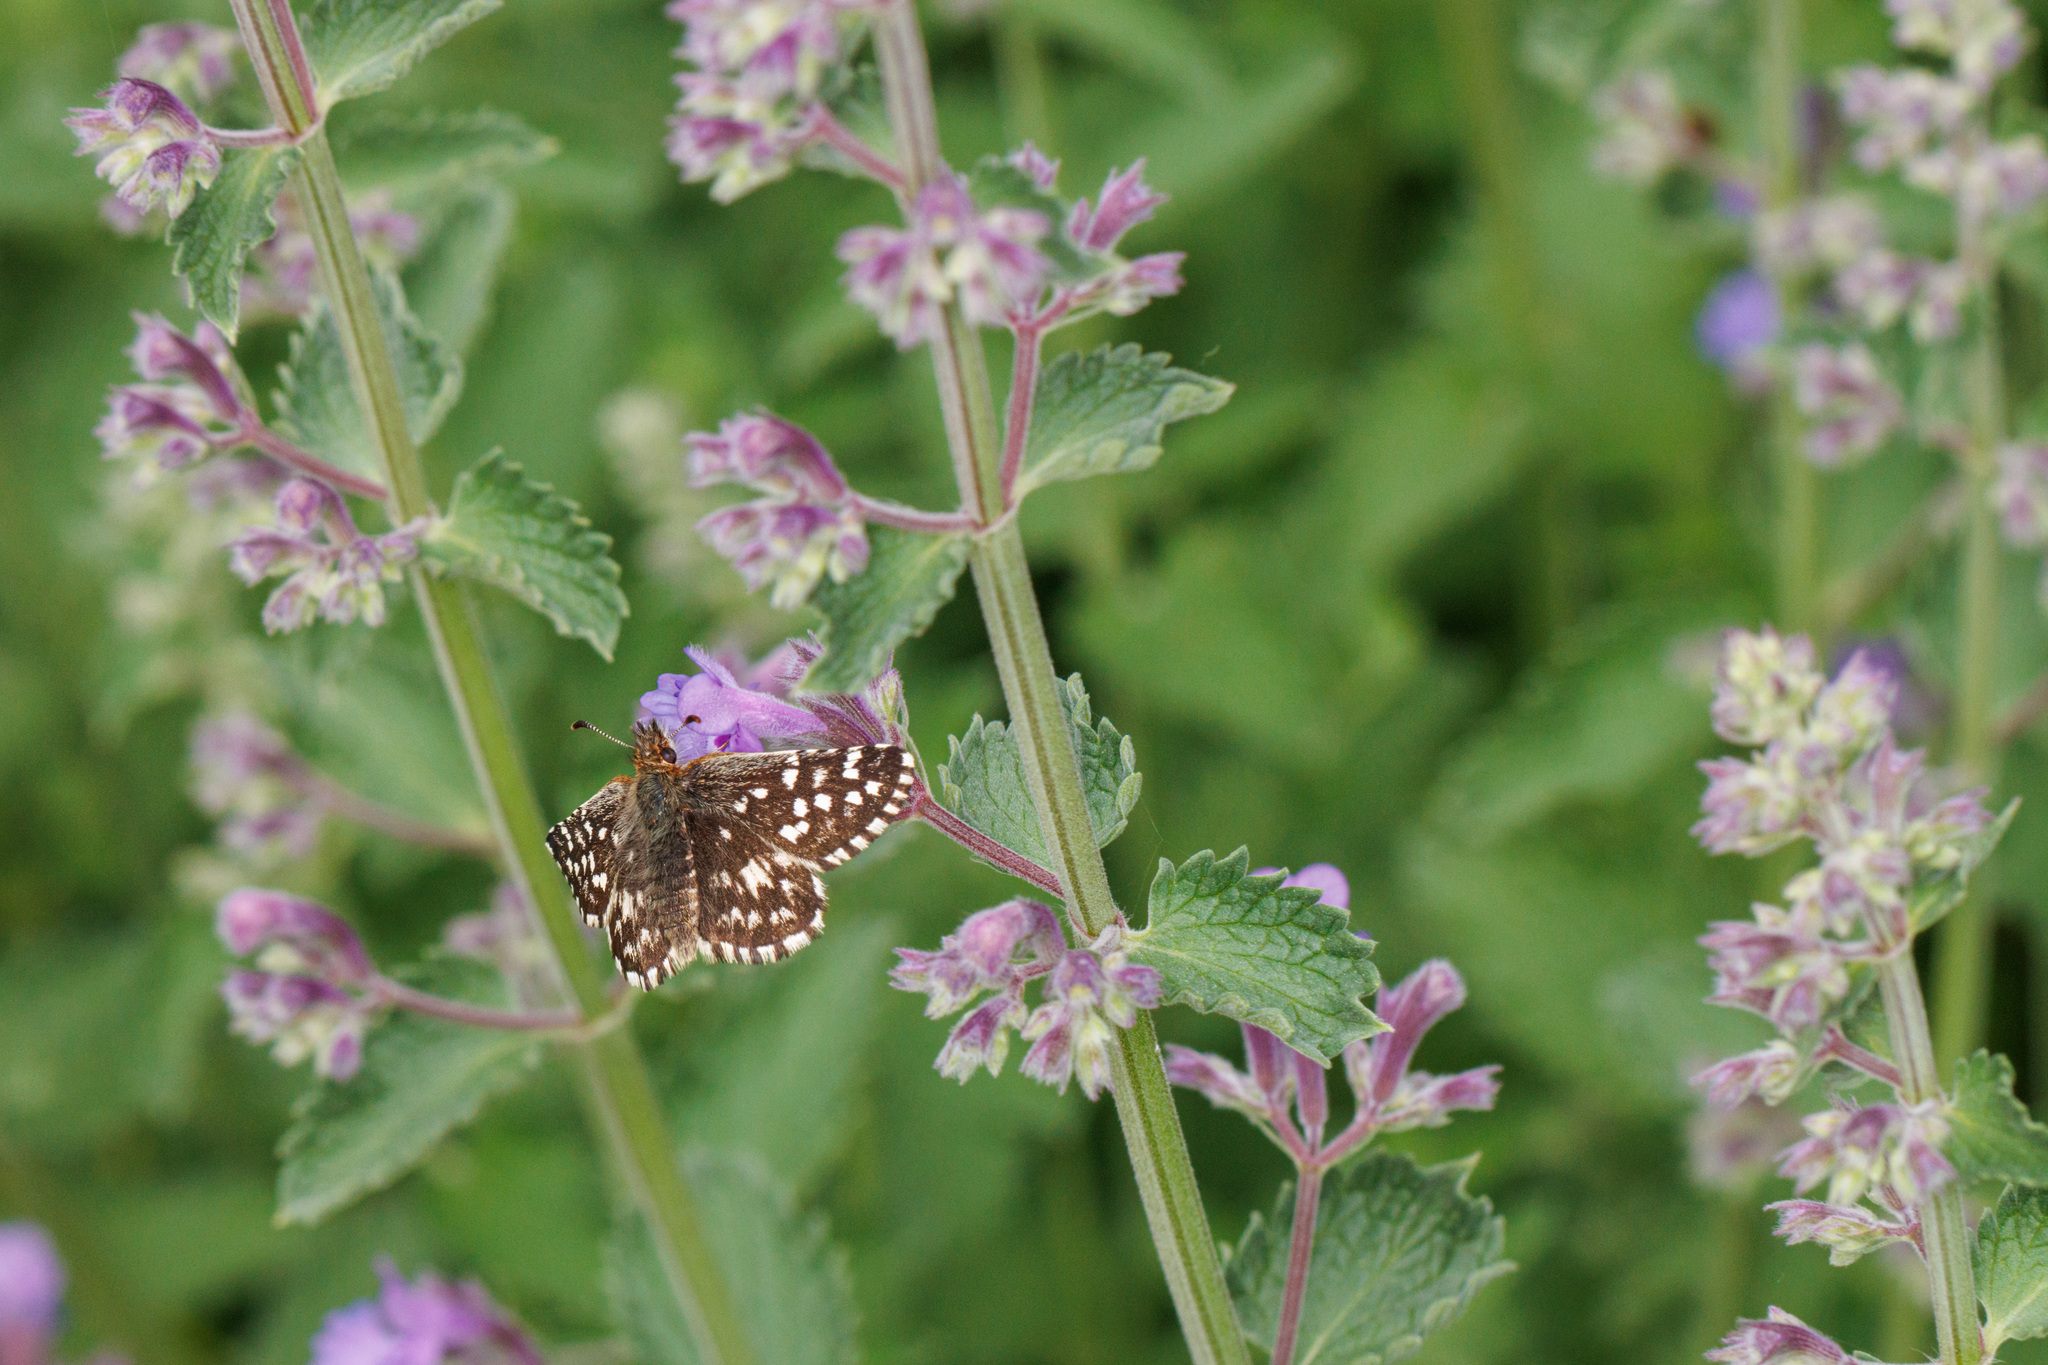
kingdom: Animalia
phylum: Arthropoda
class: Insecta
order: Lepidoptera
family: Hesperiidae
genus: Pyrgus
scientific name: Pyrgus ruralis
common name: Two-banded checkered-skipper
